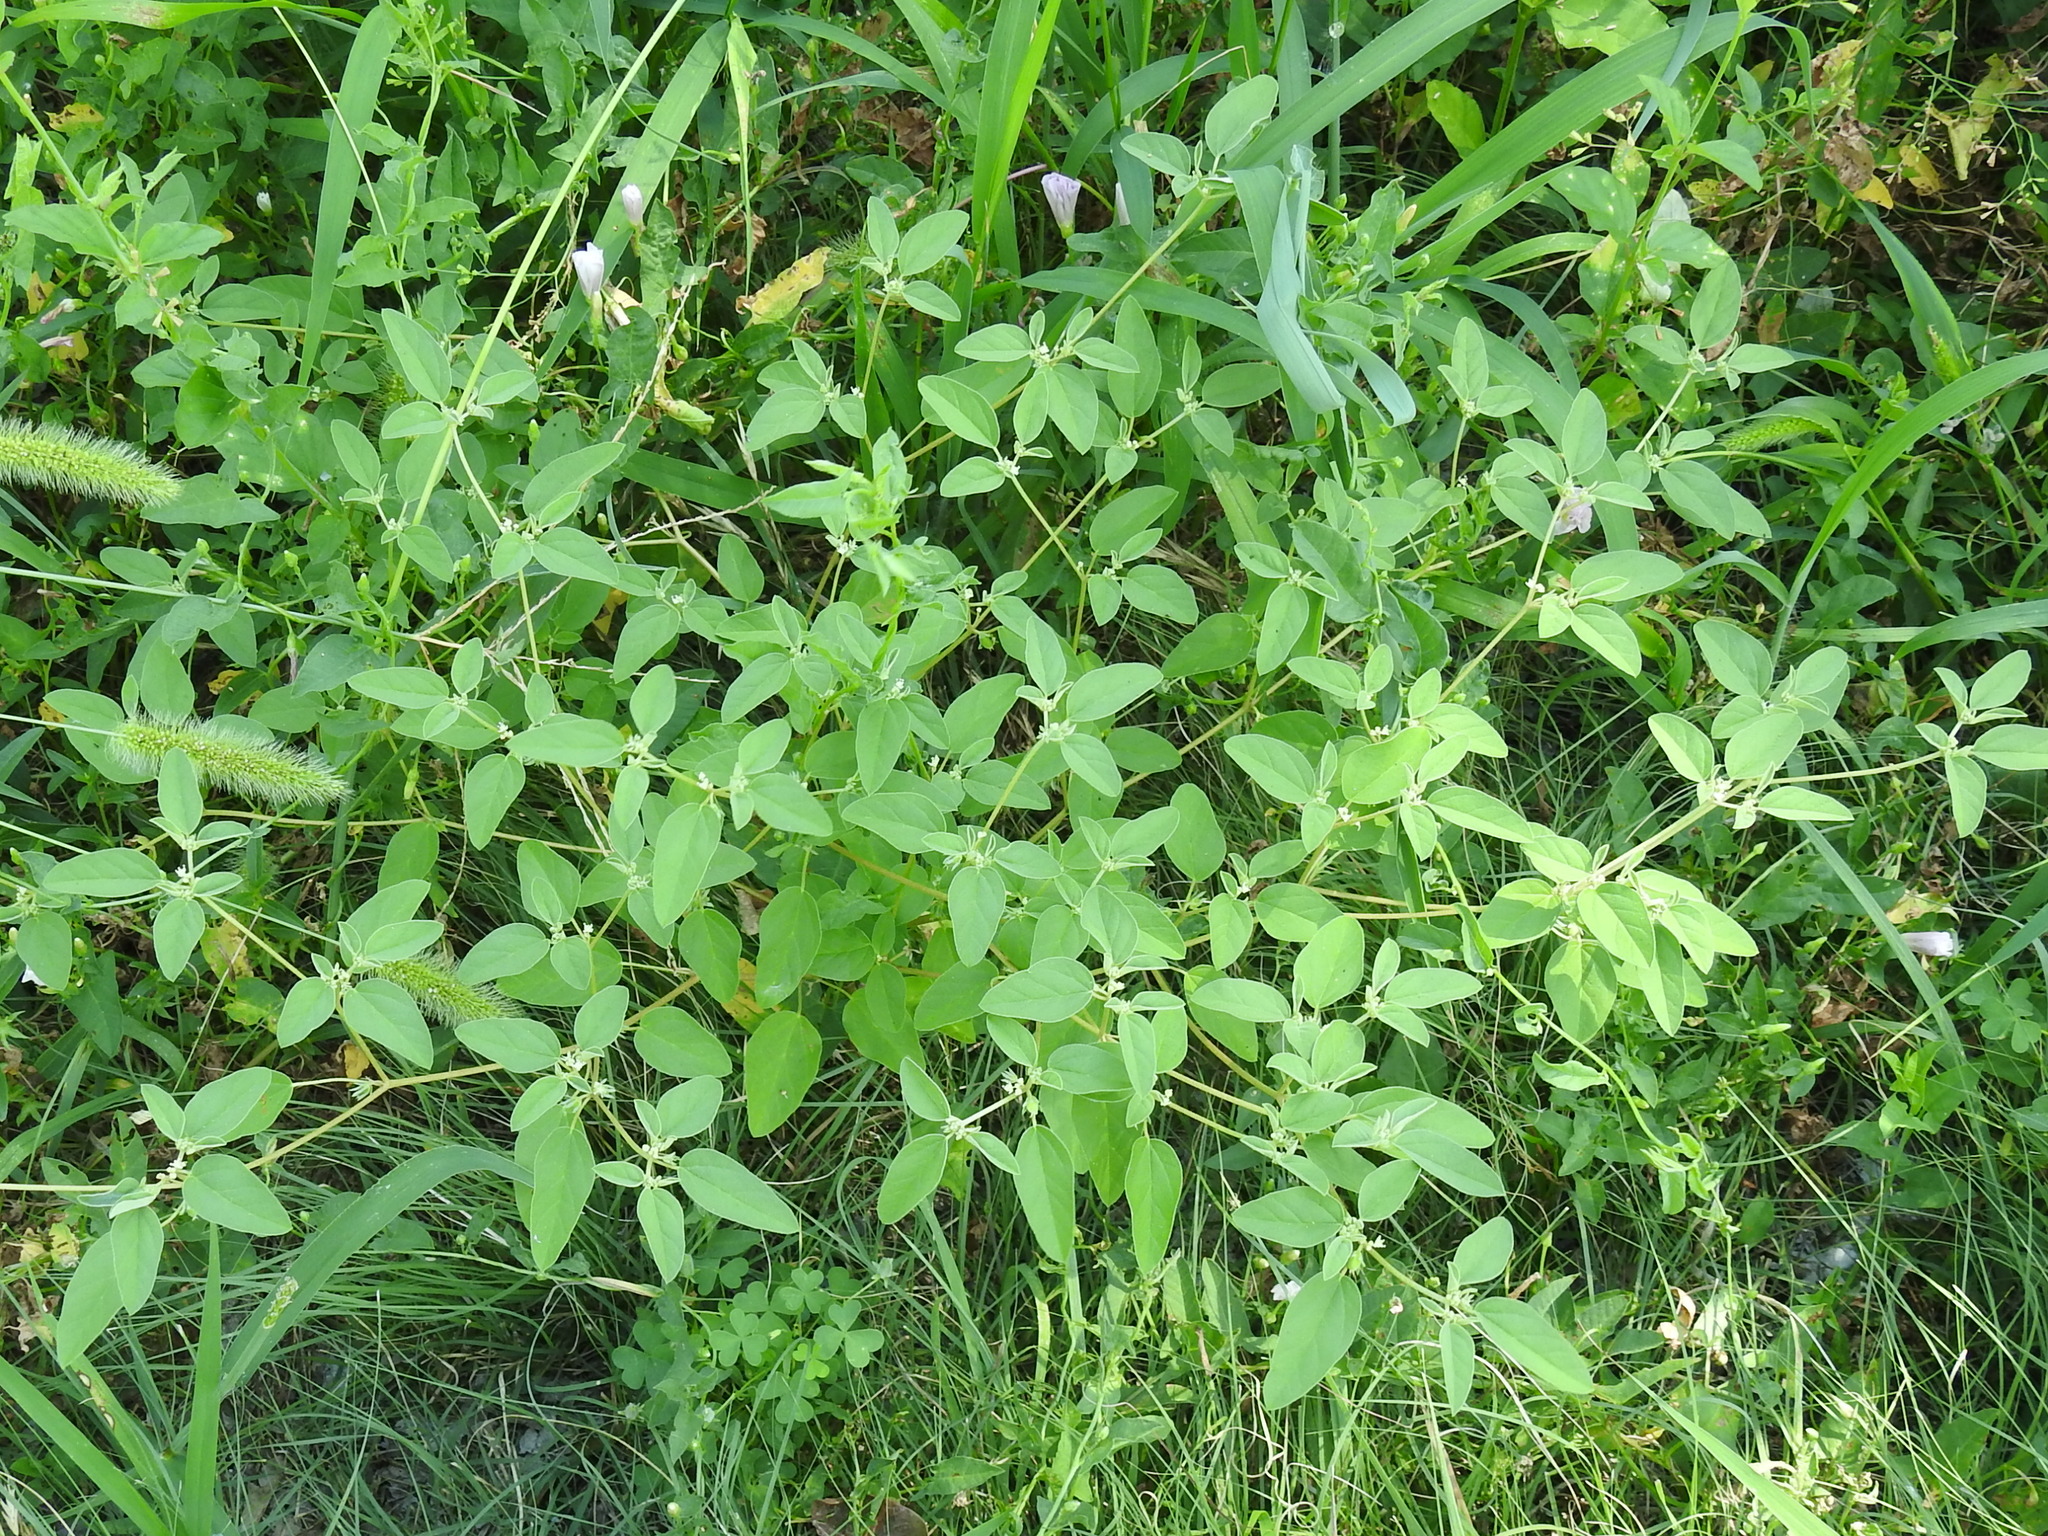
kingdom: Plantae
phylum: Tracheophyta
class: Magnoliopsida
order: Malpighiales
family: Euphorbiaceae
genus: Croton
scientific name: Croton monanthogynus
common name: One-seed croton
